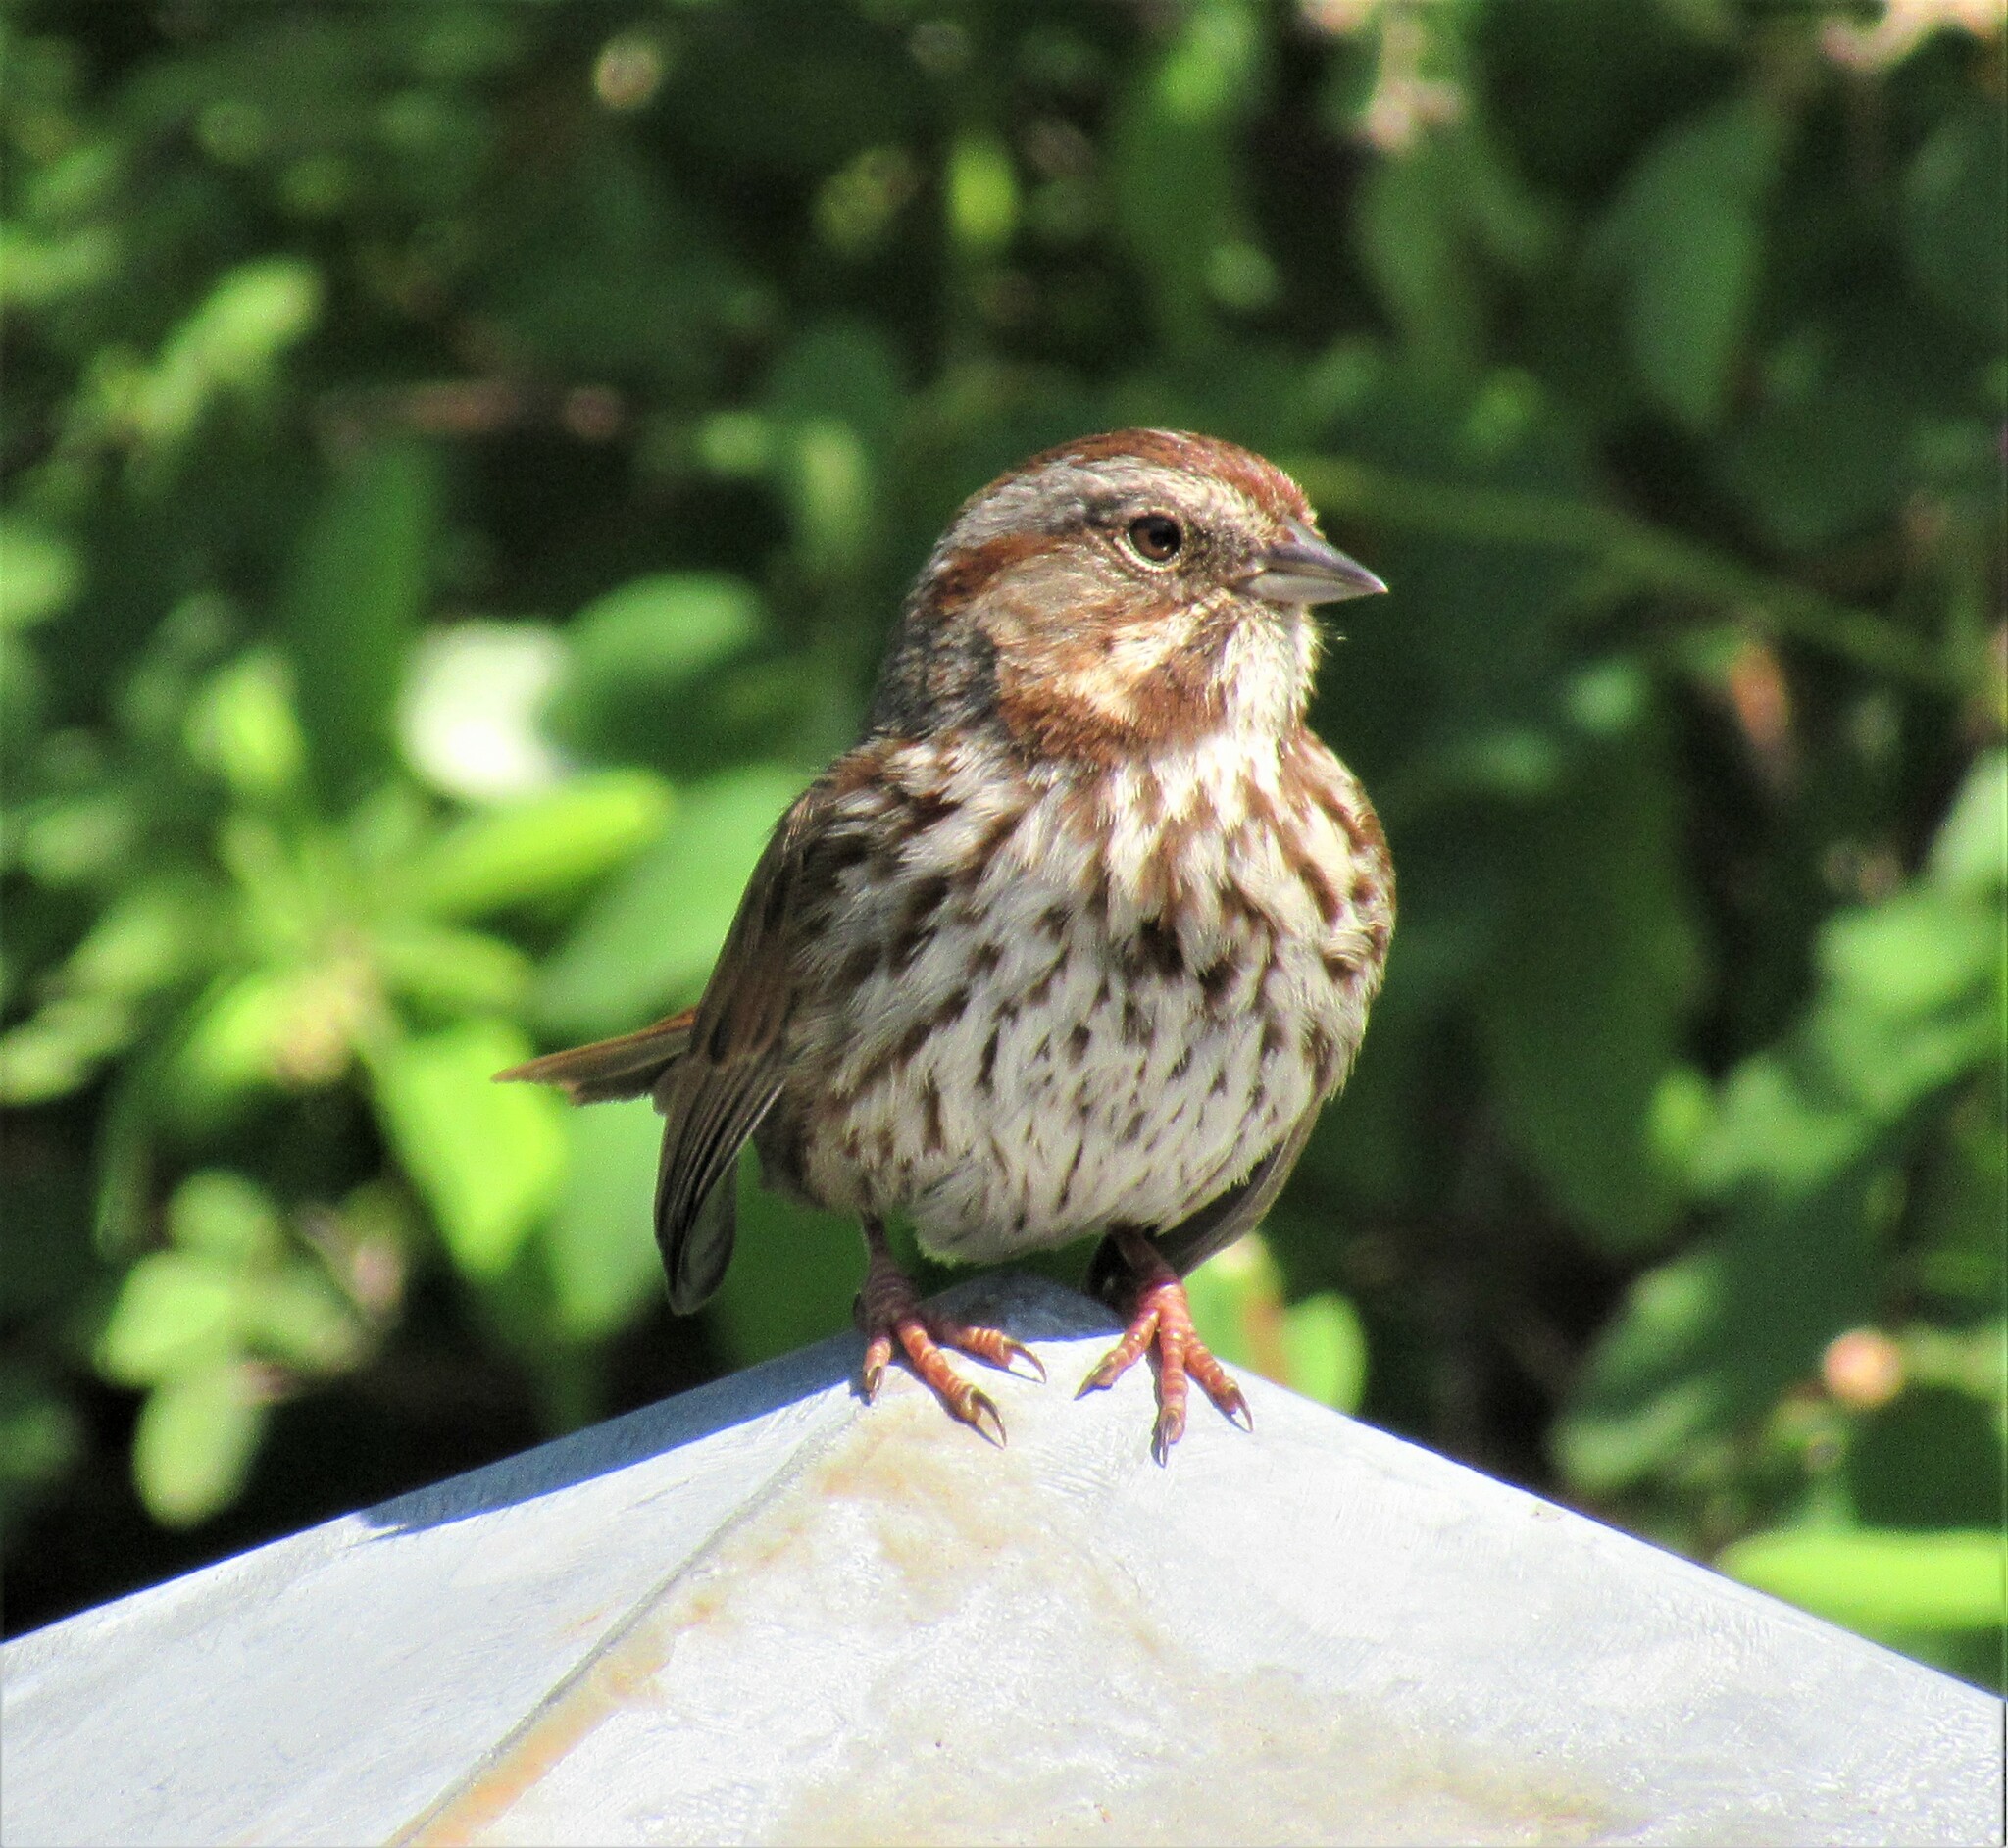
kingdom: Animalia
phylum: Chordata
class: Aves
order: Passeriformes
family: Passerellidae
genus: Melospiza
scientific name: Melospiza melodia
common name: Song sparrow
